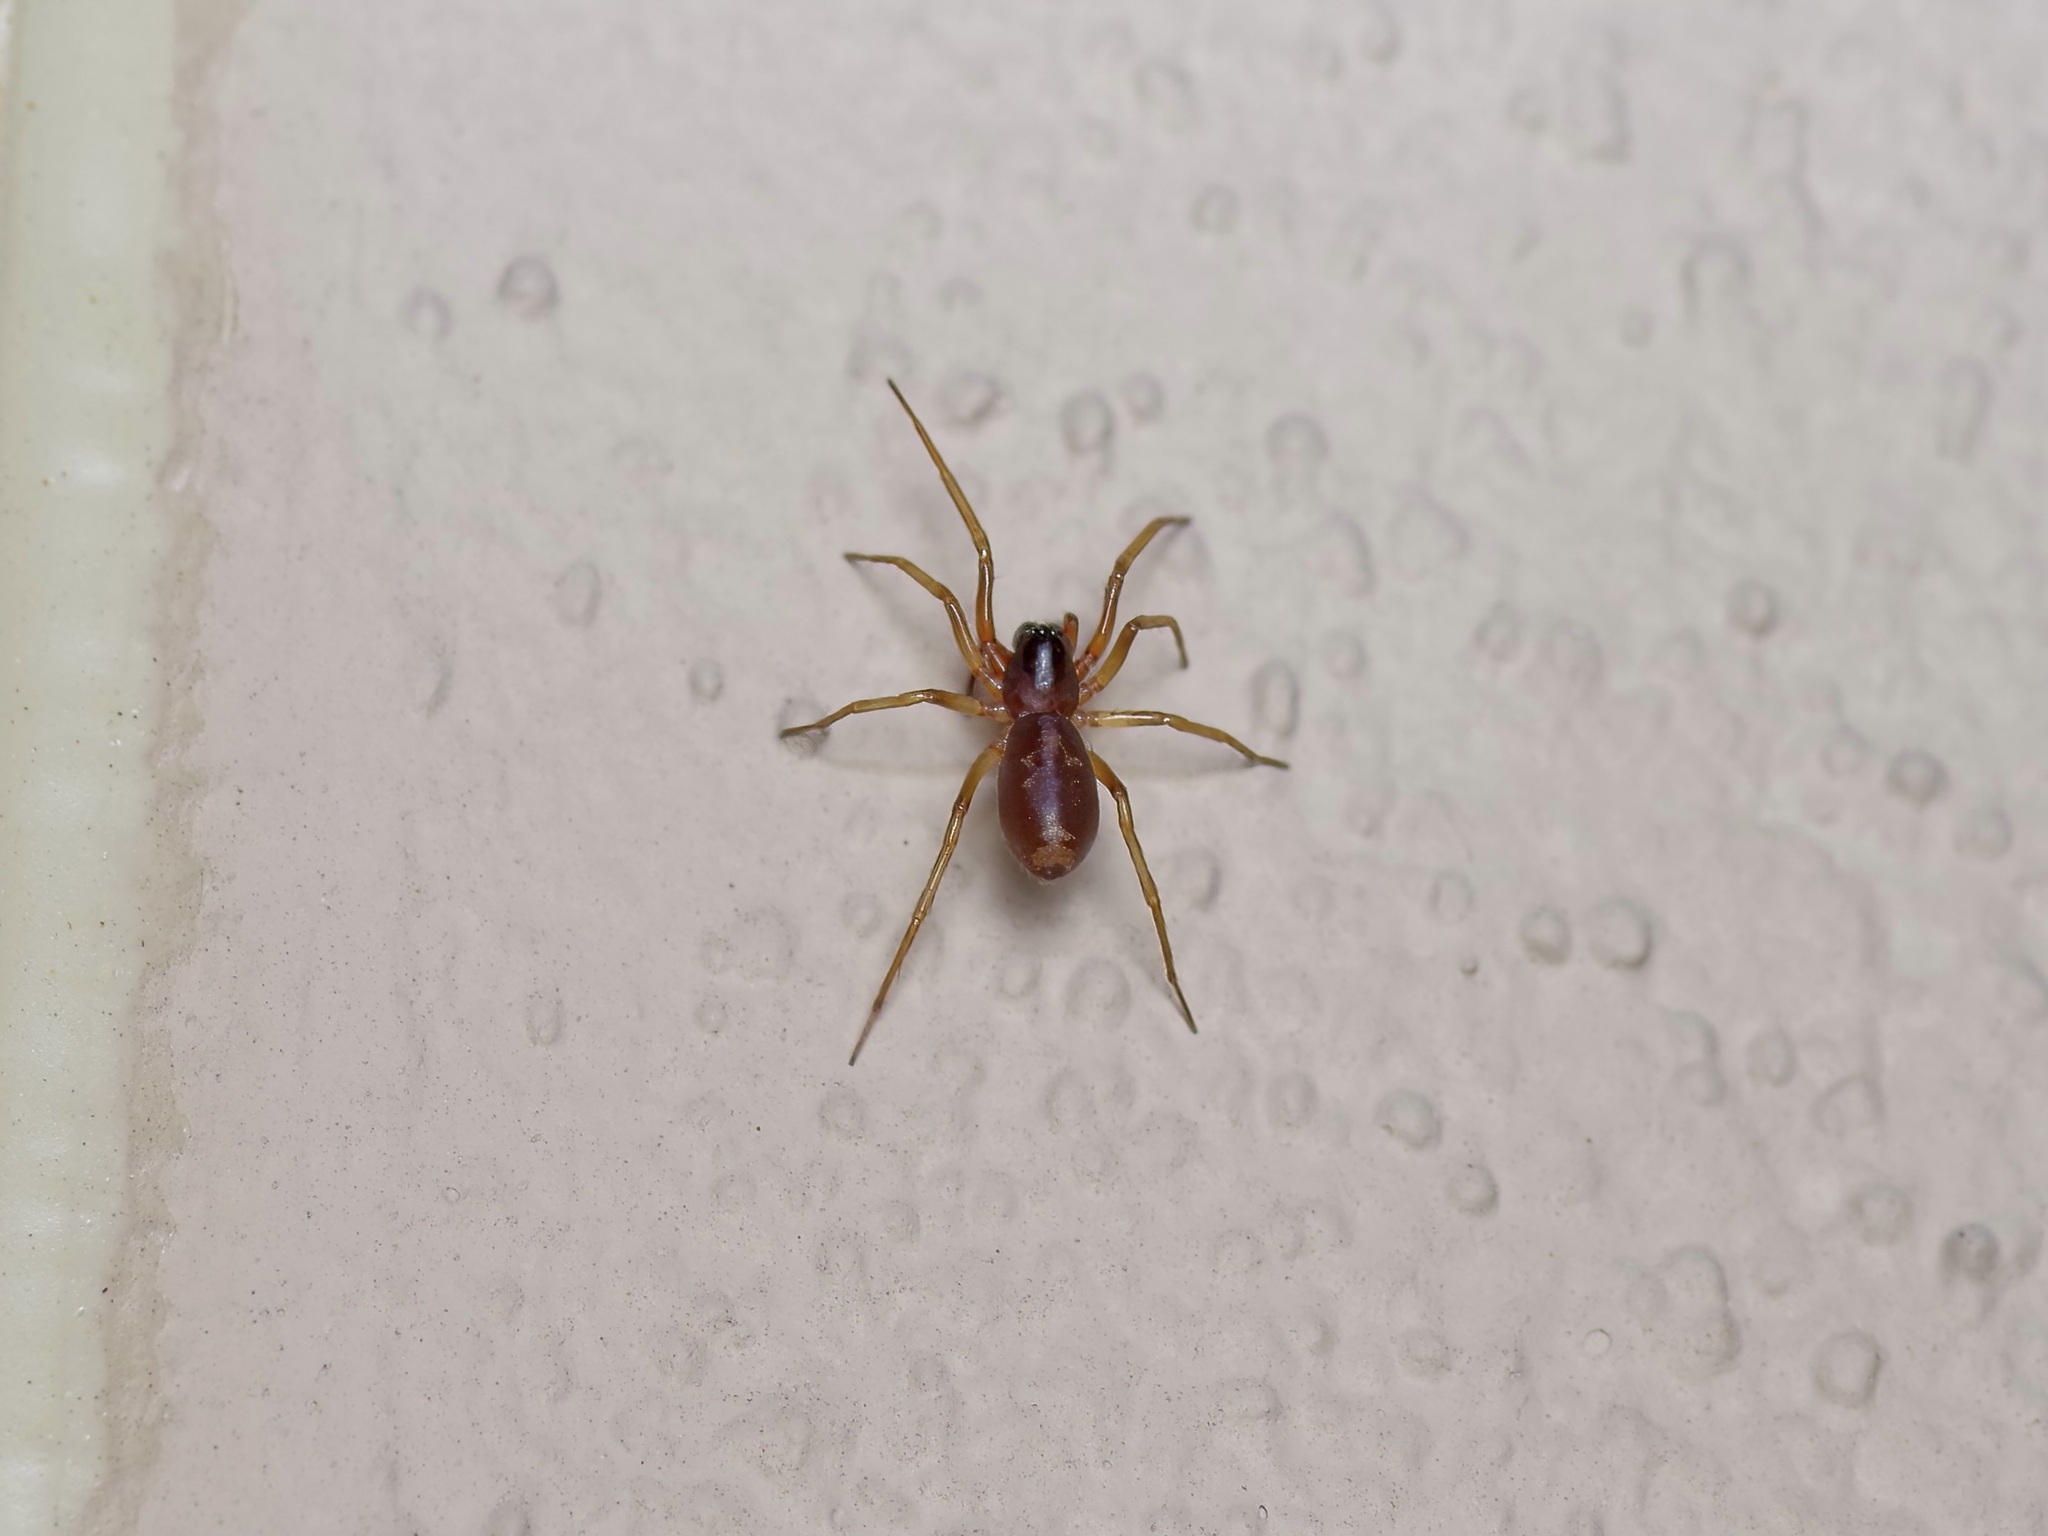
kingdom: Animalia
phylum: Arthropoda
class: Arachnida
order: Araneae
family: Corinnidae
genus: Falconina
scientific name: Falconina gracilis
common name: Antmimic spider
